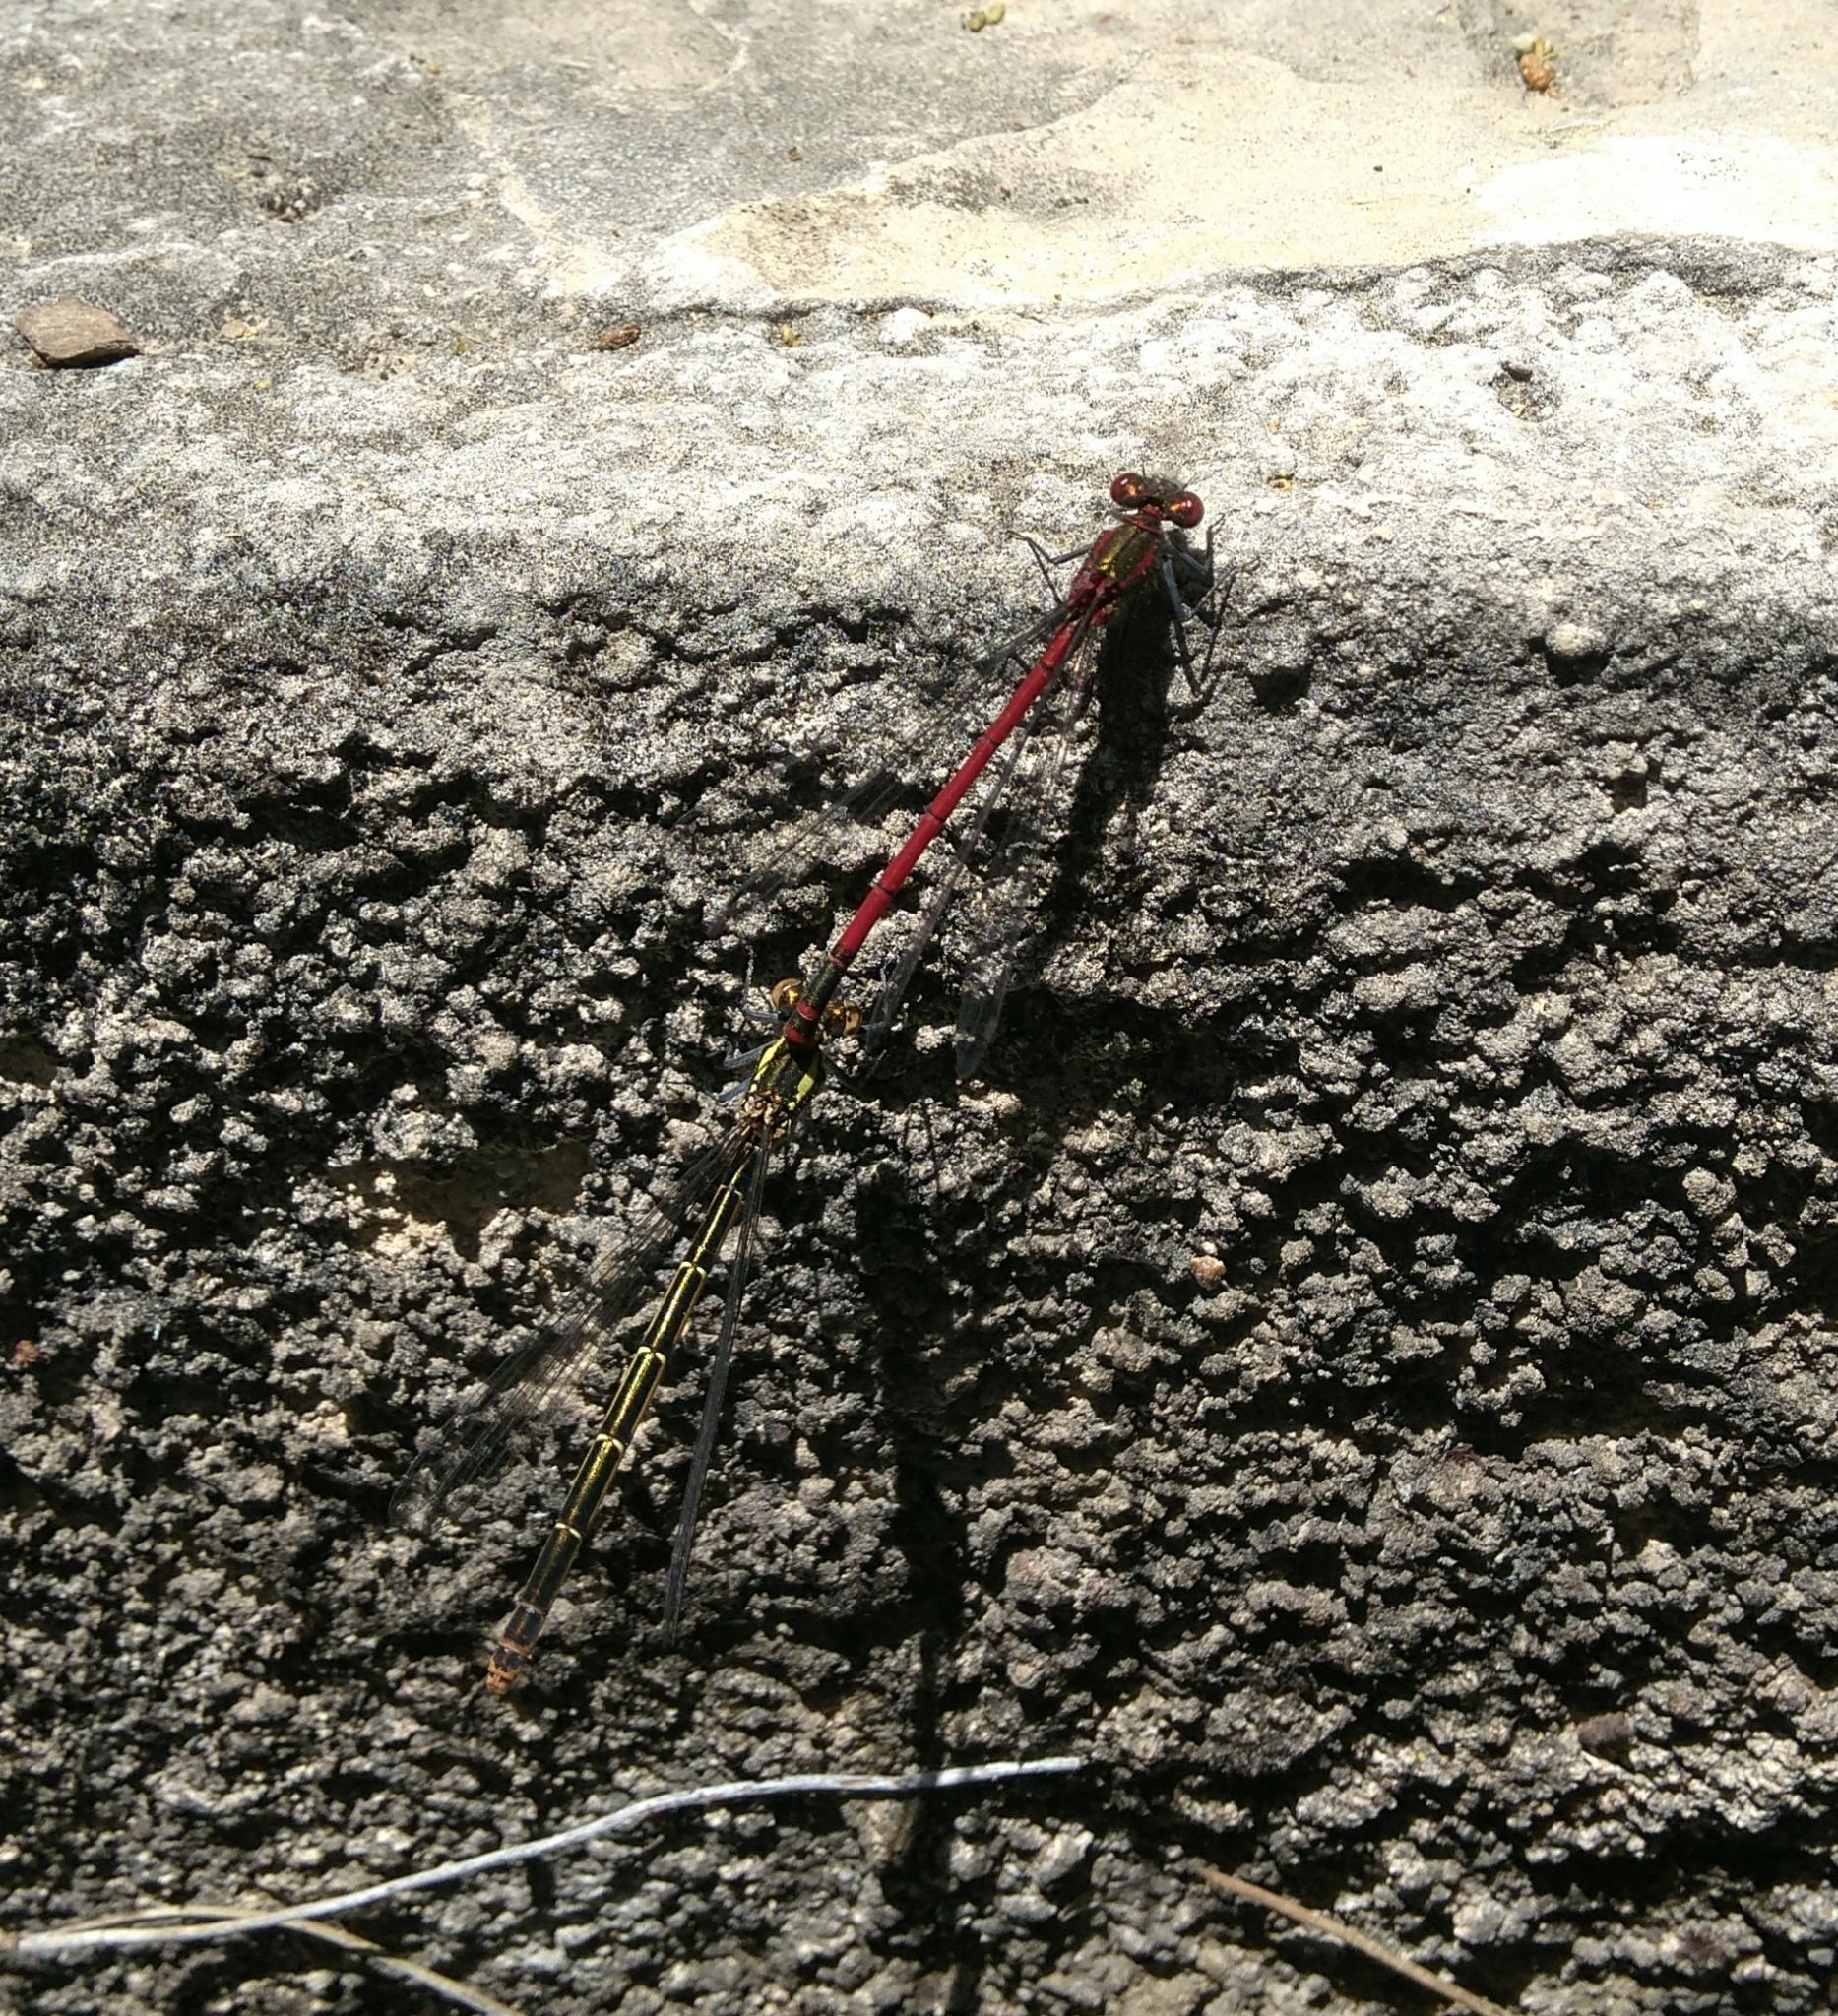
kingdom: Animalia
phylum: Arthropoda
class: Insecta
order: Odonata
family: Coenagrionidae
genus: Pyrrhosoma
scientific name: Pyrrhosoma nymphula
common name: Large red damsel
